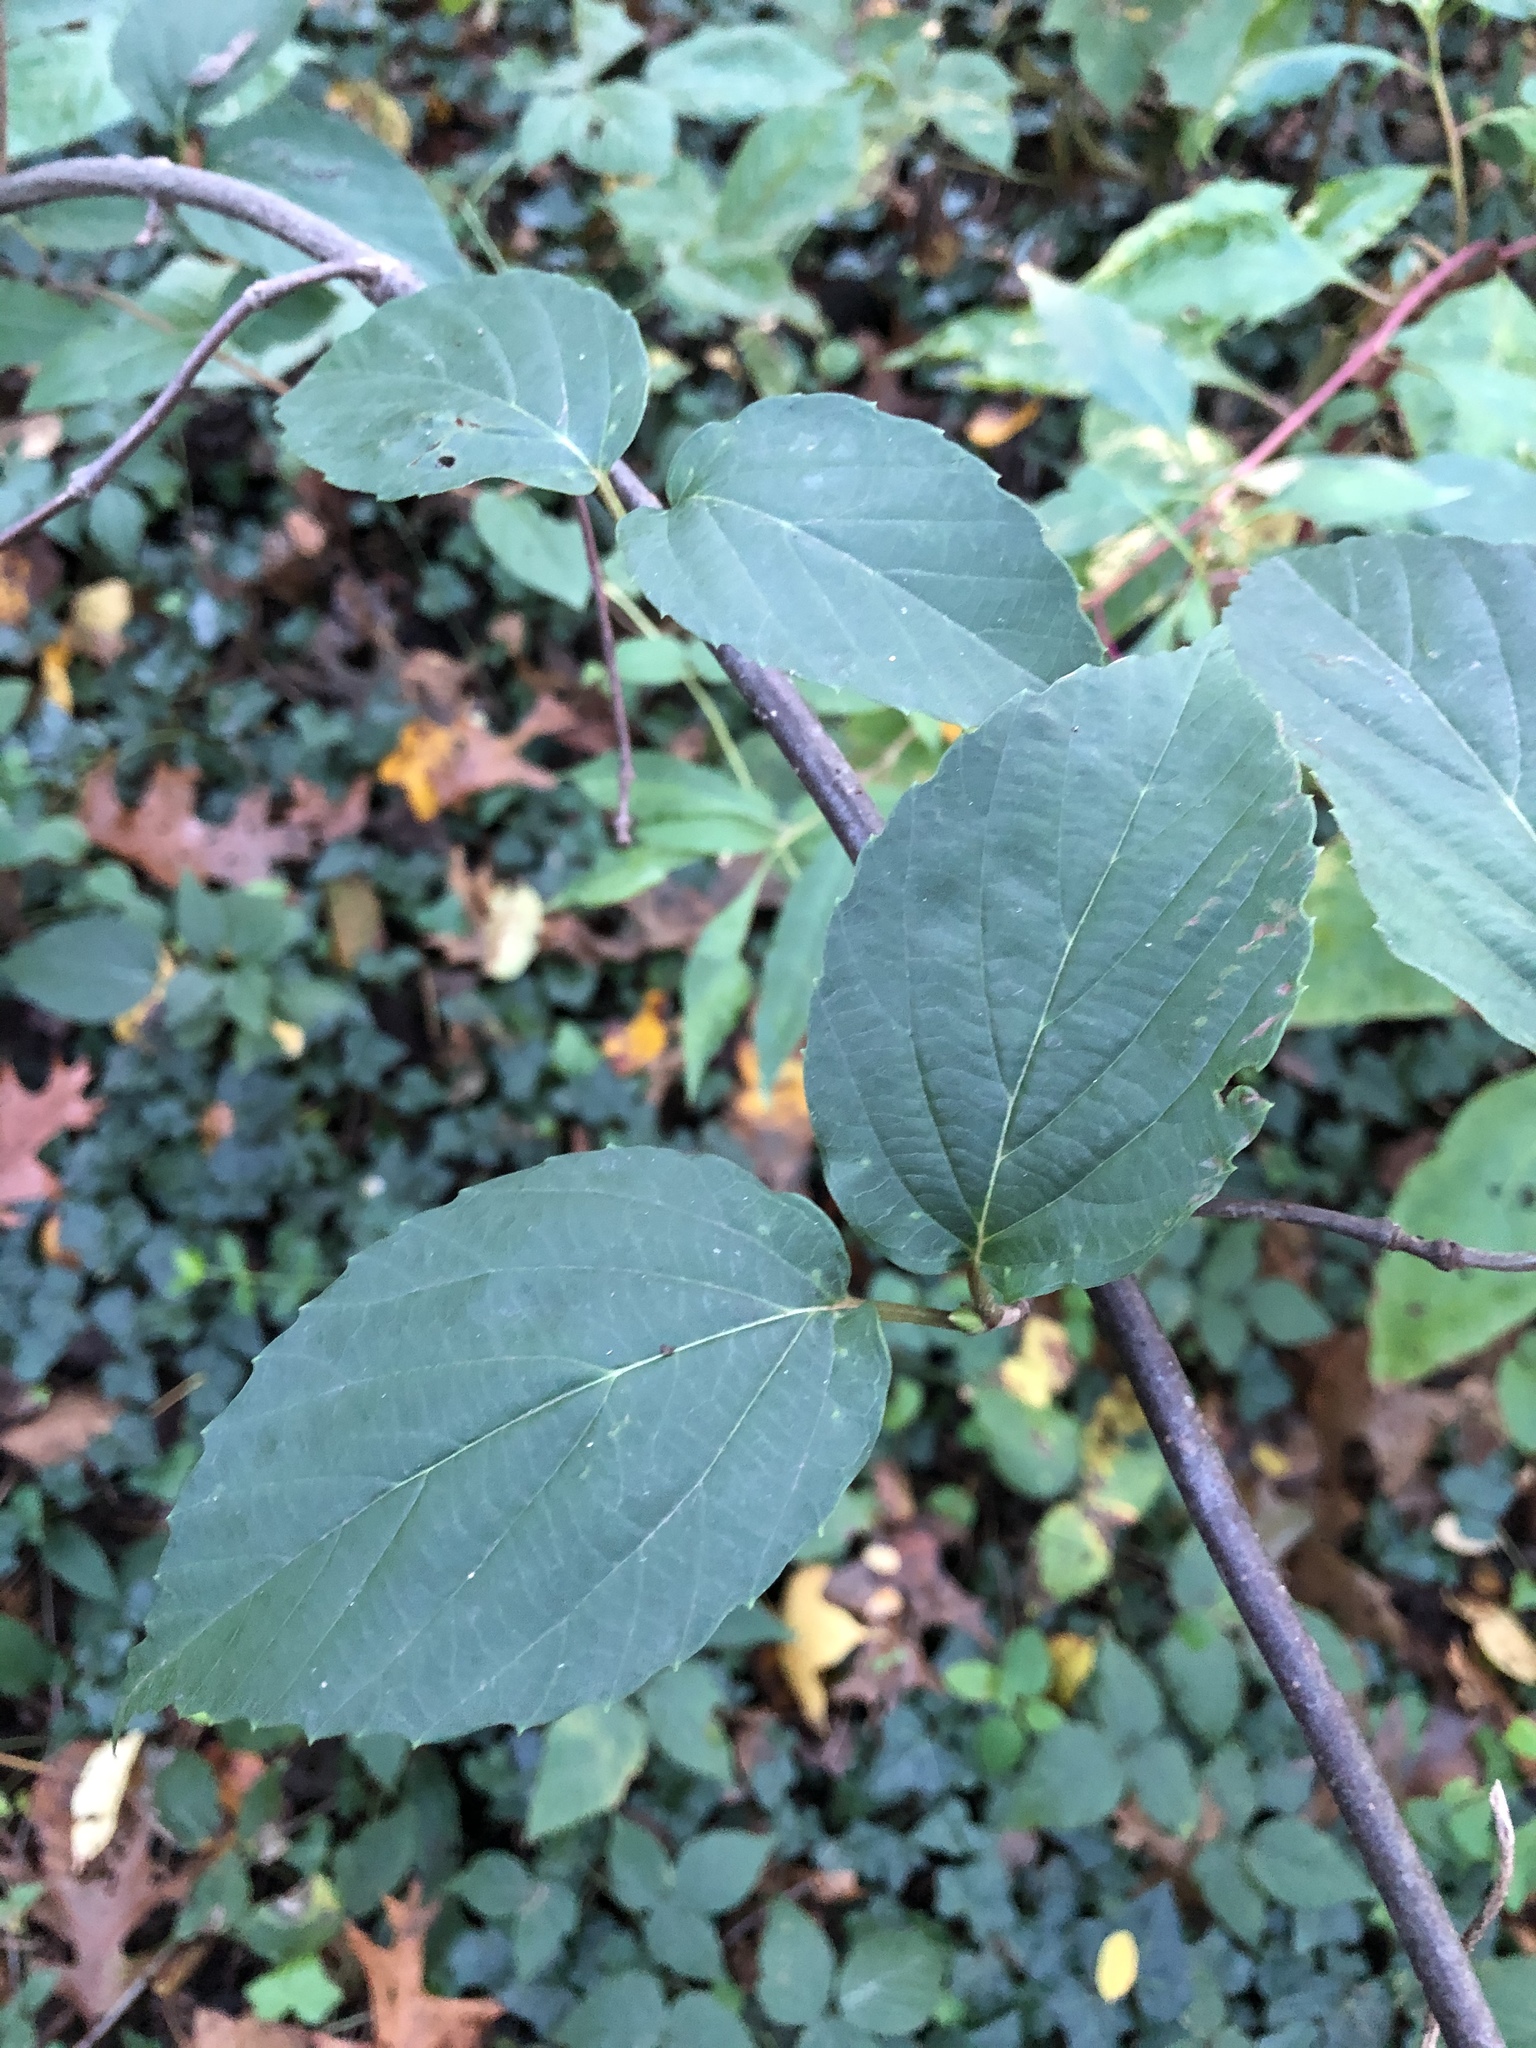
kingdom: Plantae
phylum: Tracheophyta
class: Magnoliopsida
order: Dipsacales
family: Viburnaceae
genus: Viburnum
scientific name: Viburnum setigerum
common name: Tea viburnum
